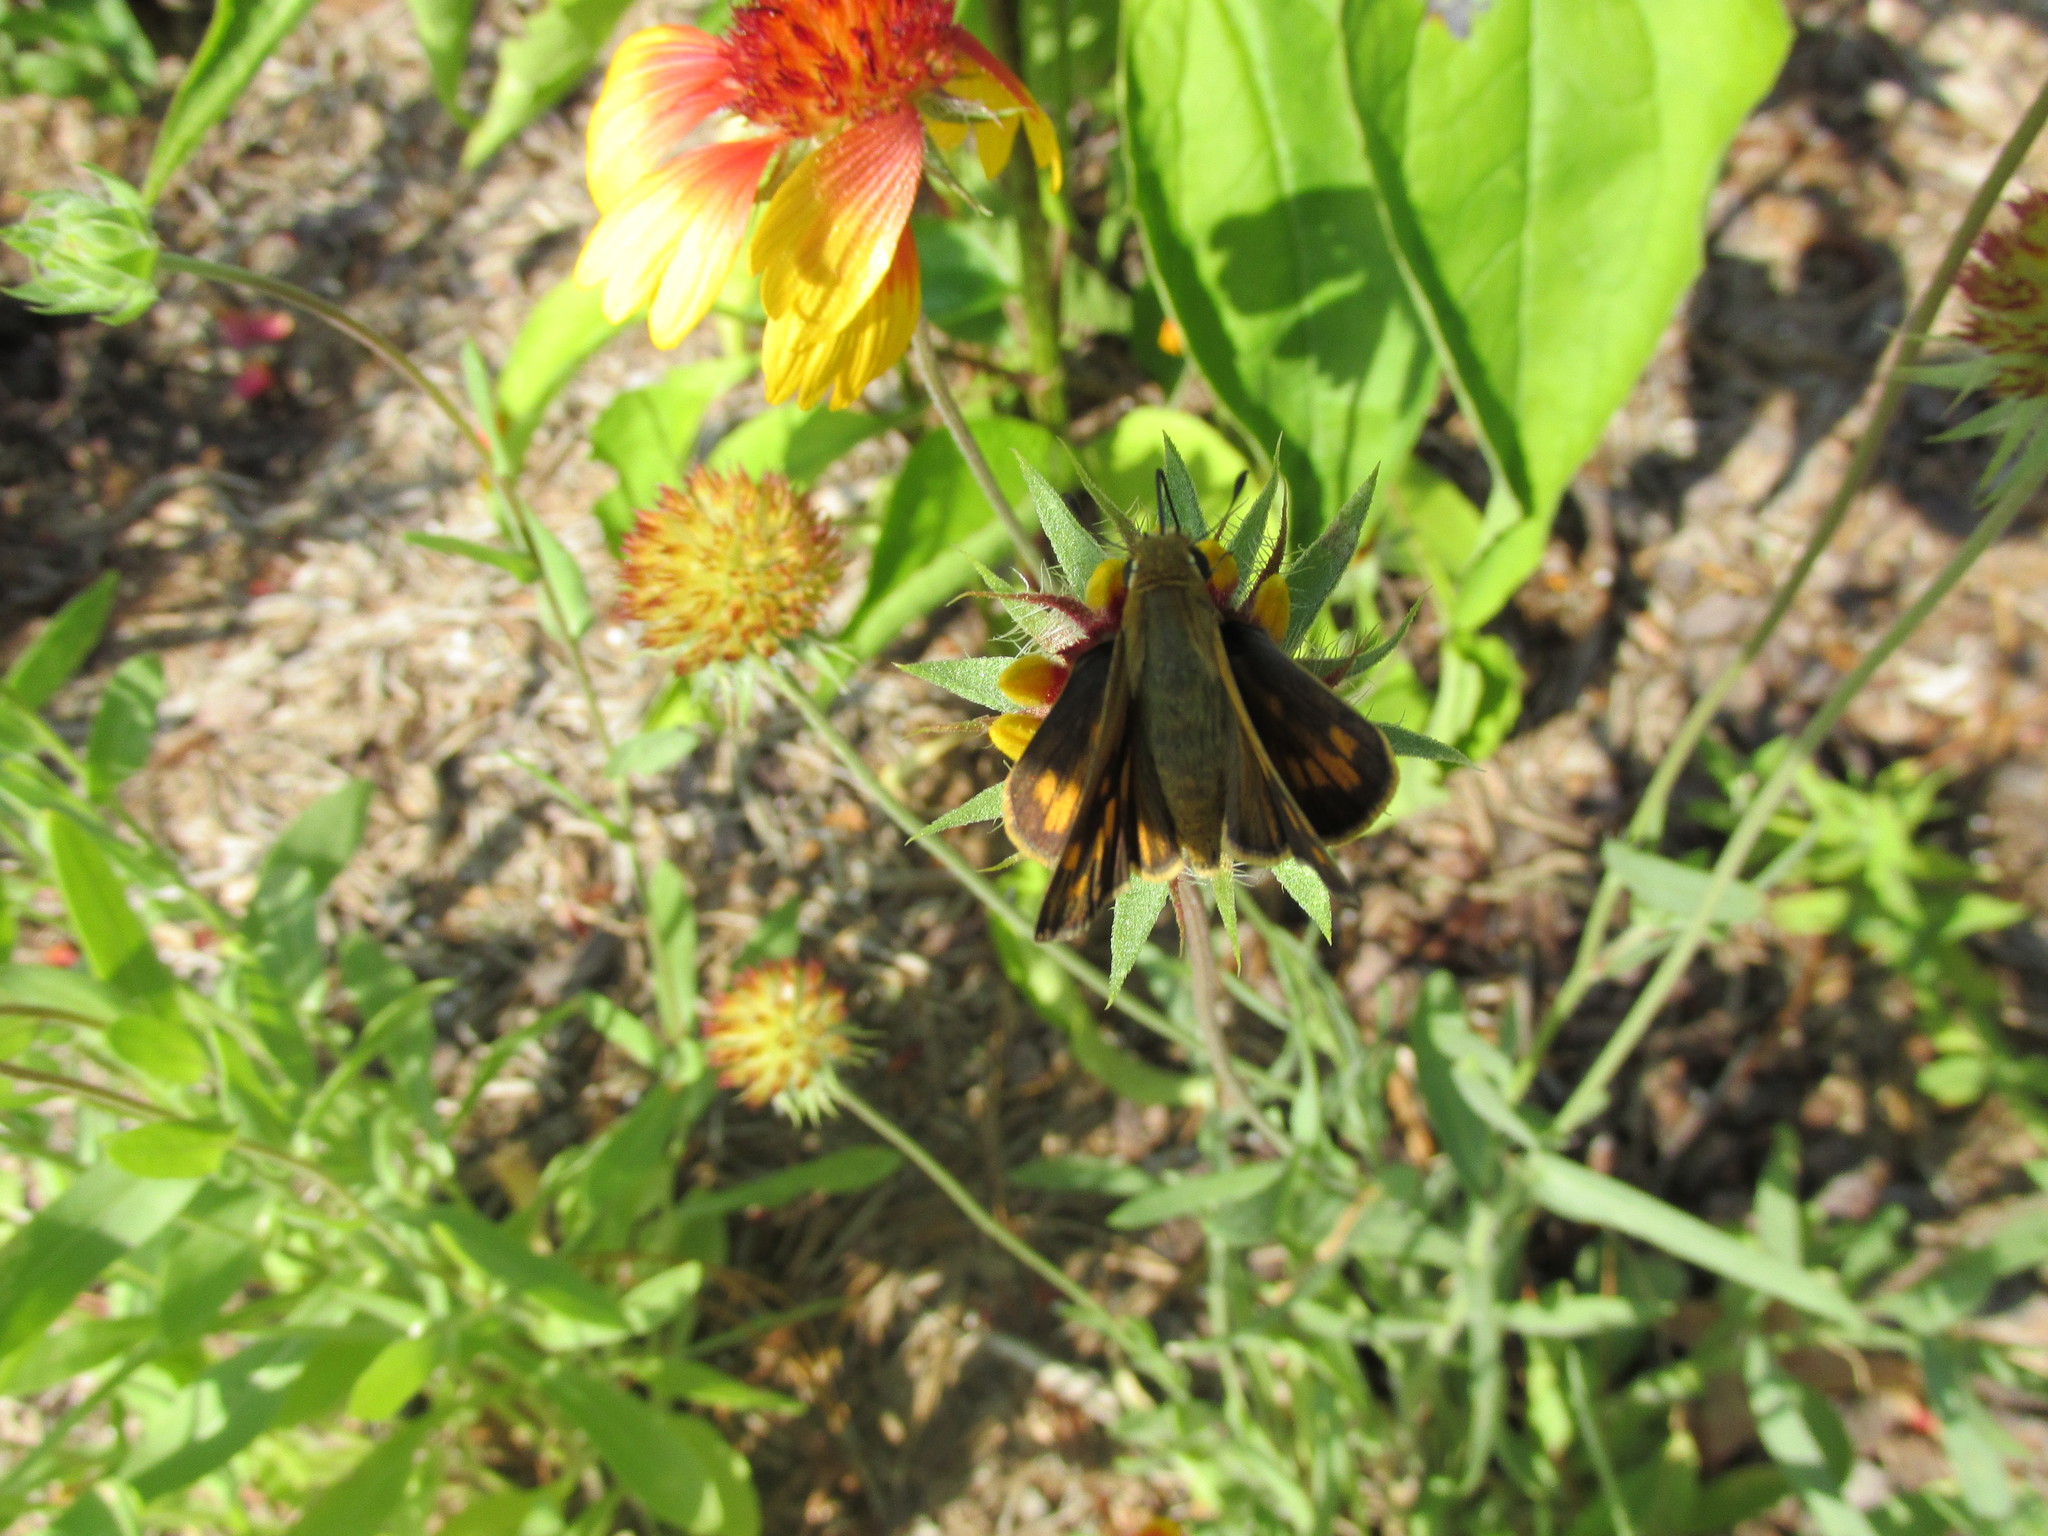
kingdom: Animalia
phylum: Arthropoda
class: Insecta
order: Lepidoptera
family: Hesperiidae
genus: Hylephila
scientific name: Hylephila phyleus
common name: Fiery skipper
